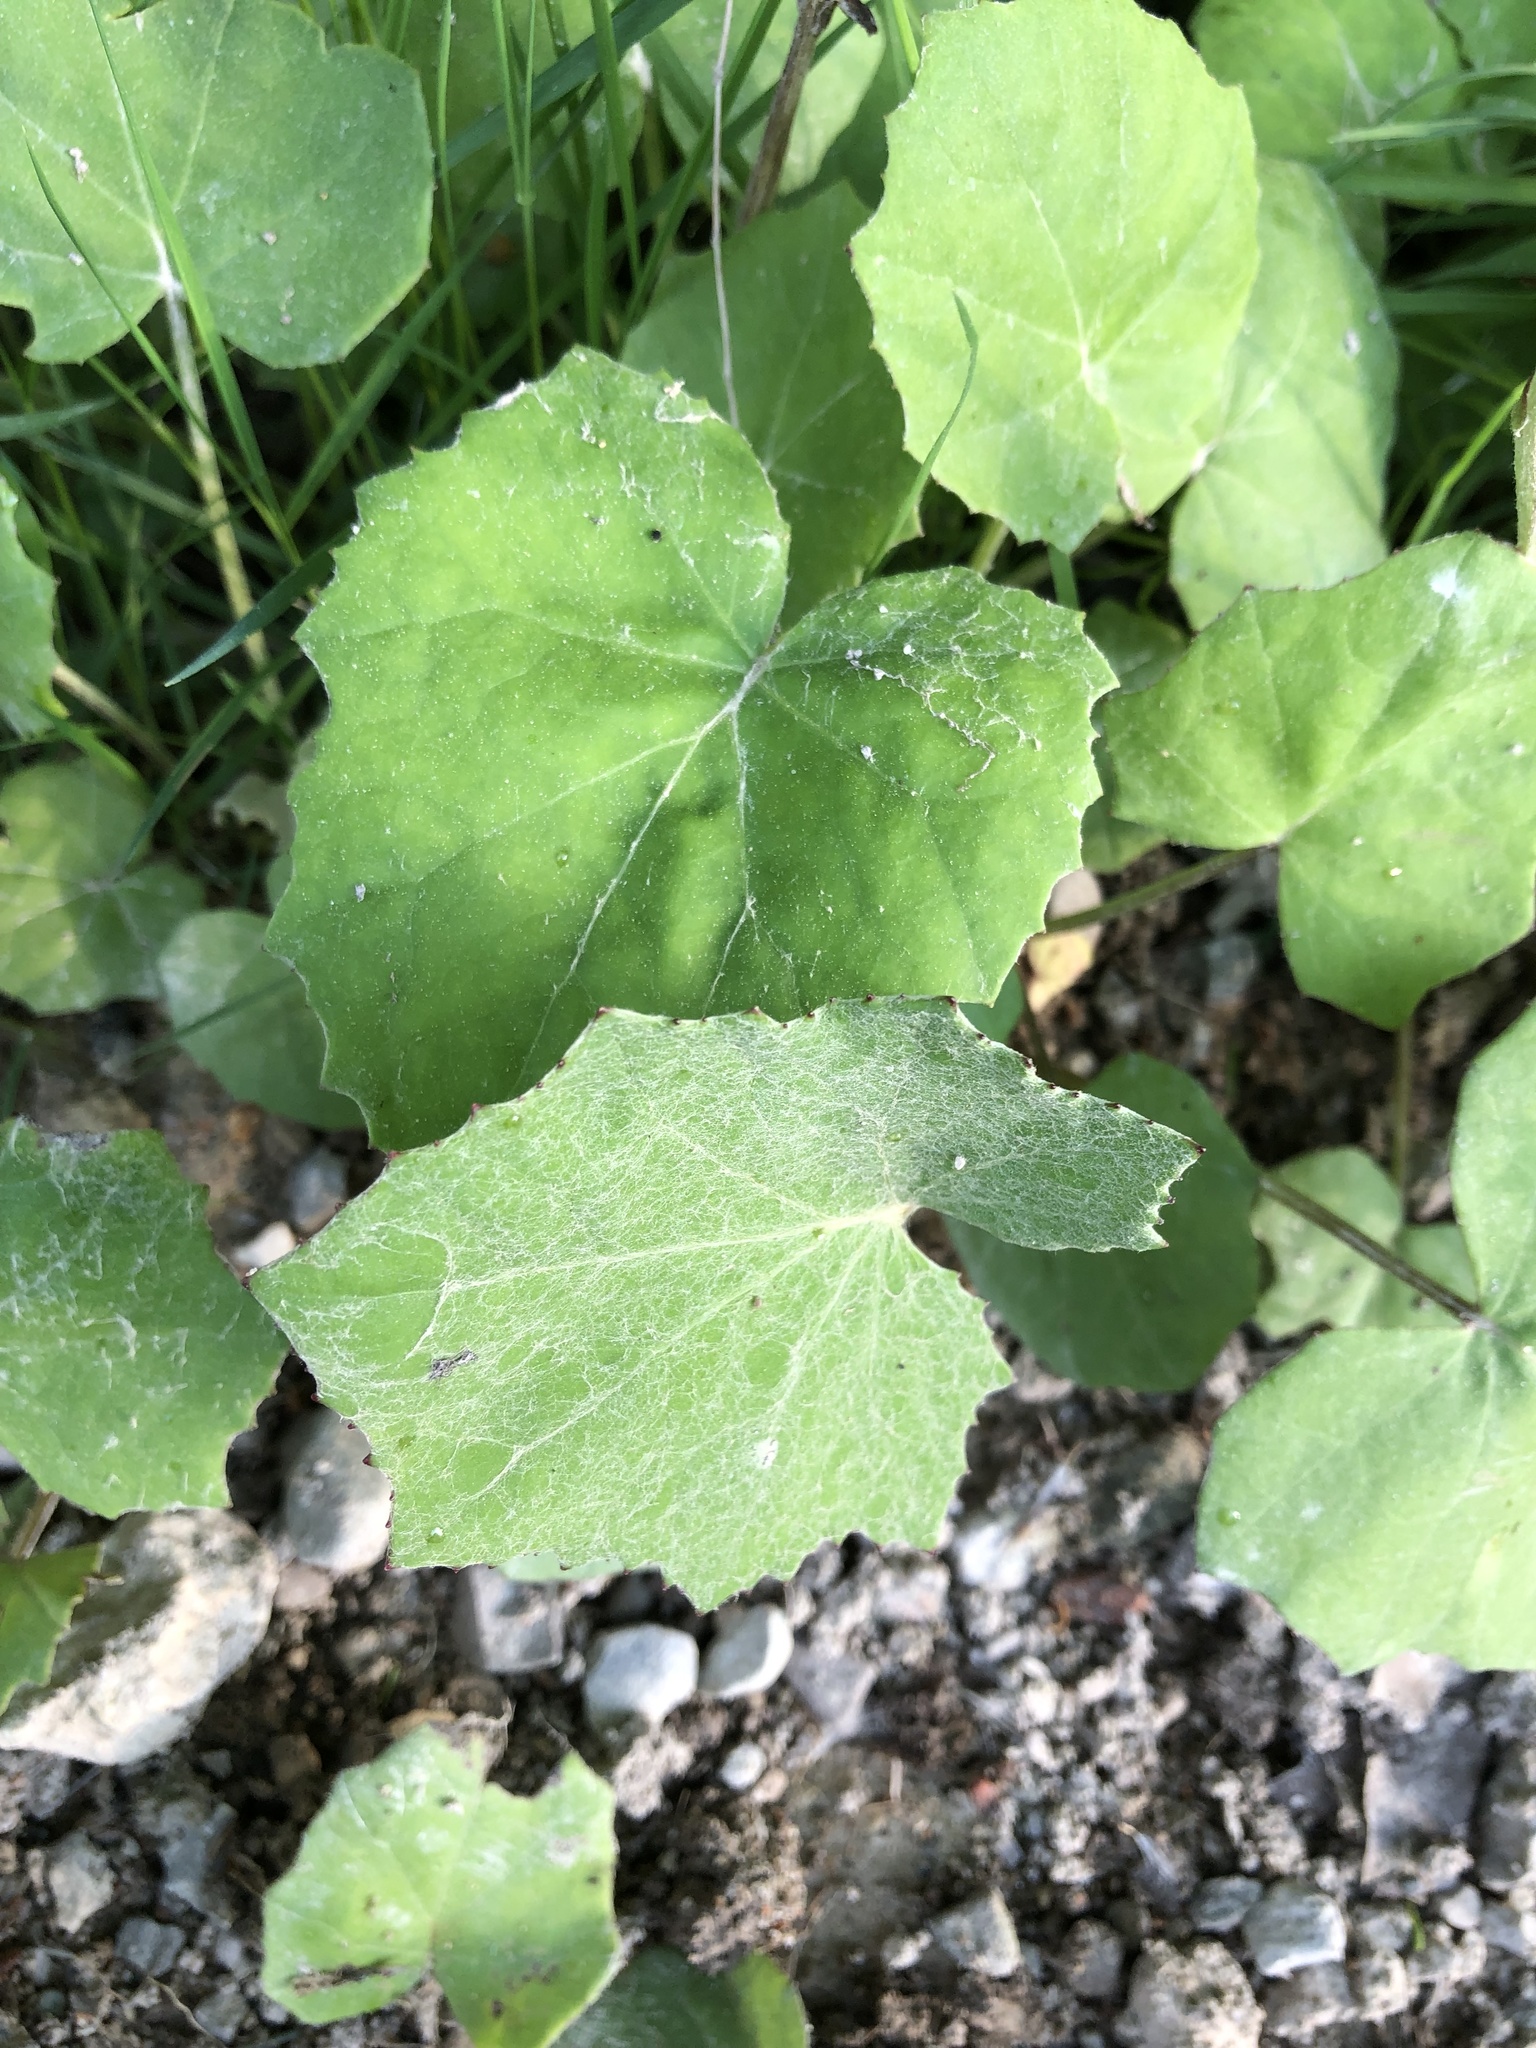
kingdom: Plantae
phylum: Tracheophyta
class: Magnoliopsida
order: Asterales
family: Asteraceae
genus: Tussilago
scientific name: Tussilago farfara
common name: Coltsfoot
